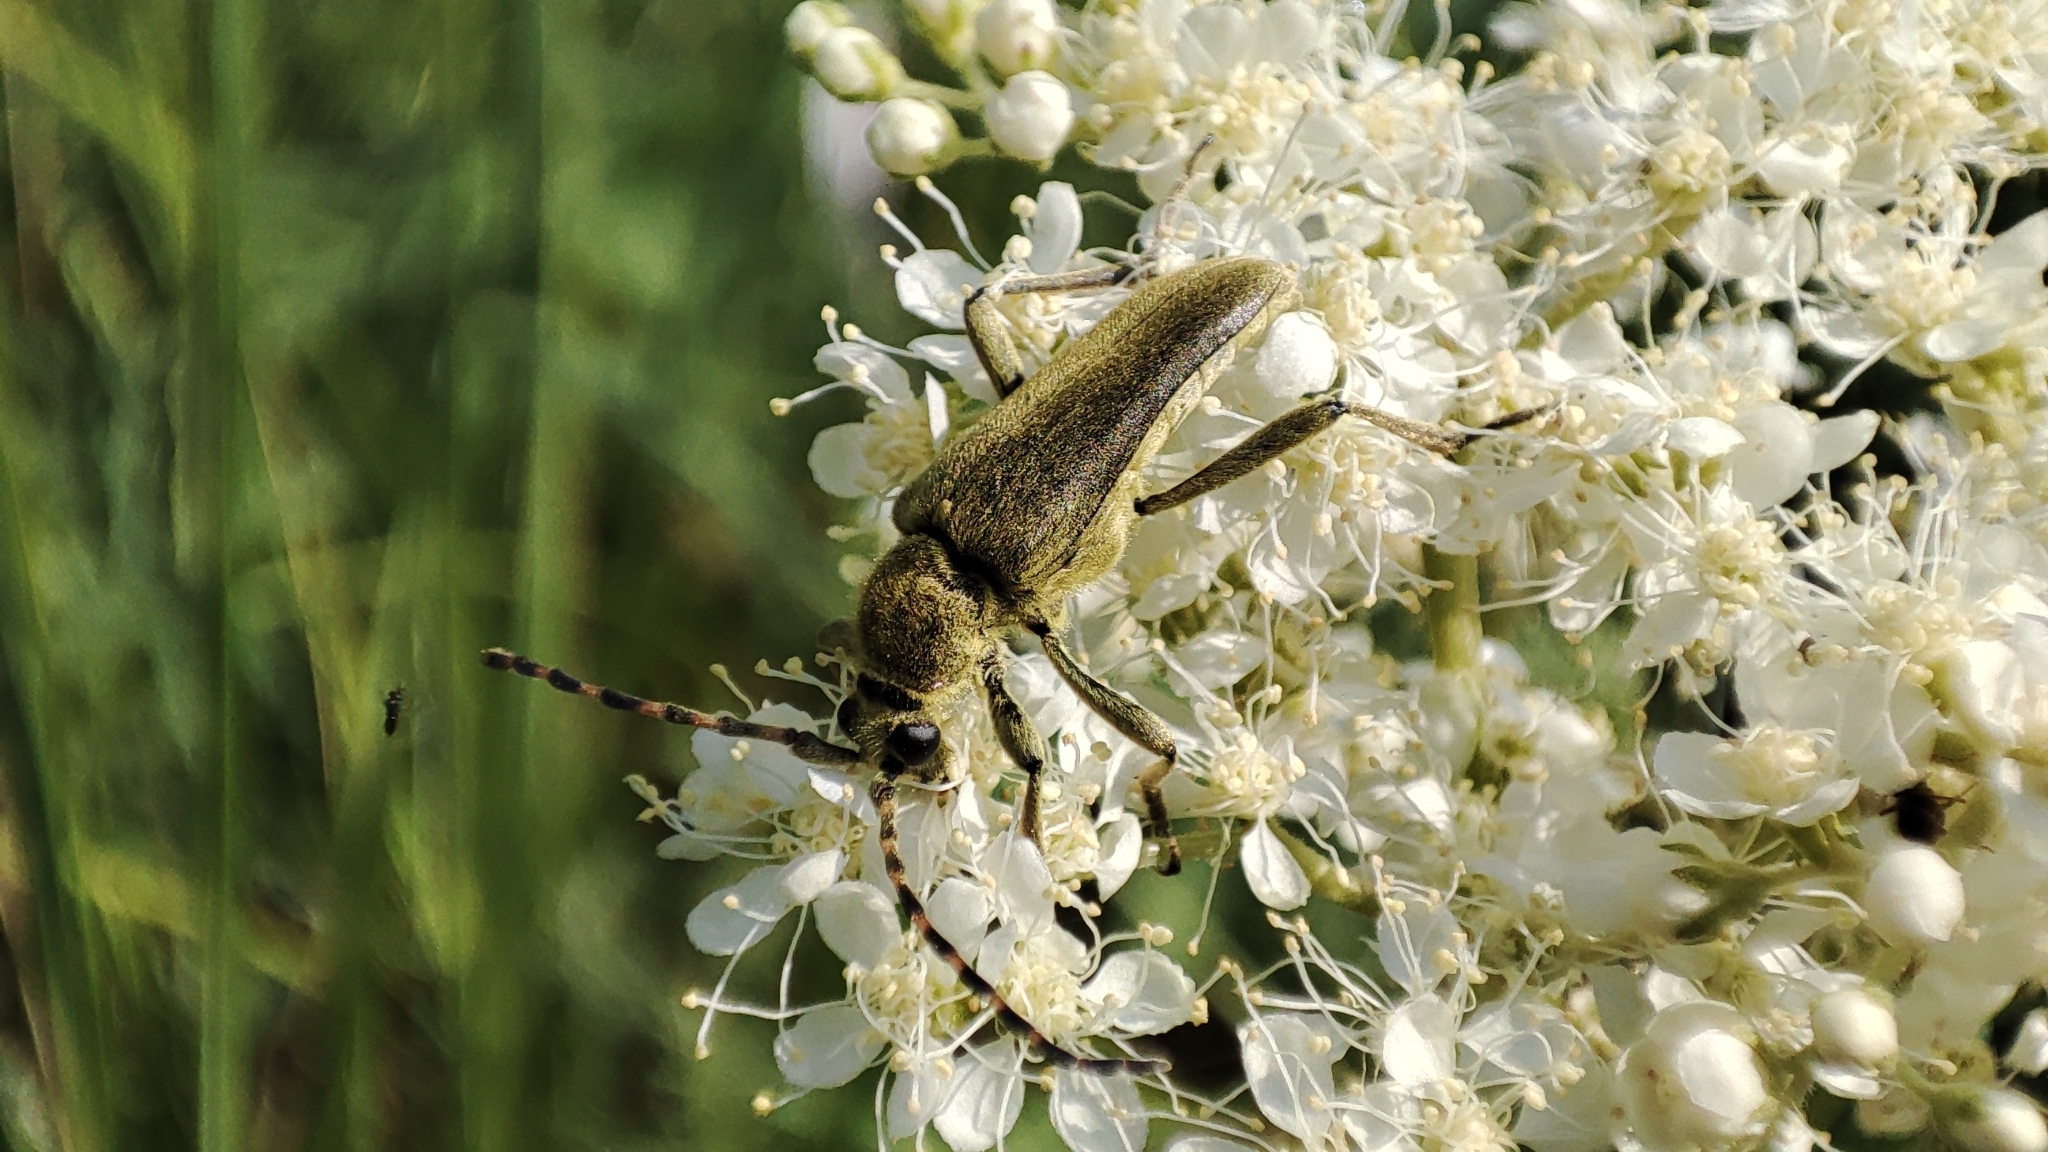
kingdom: Animalia
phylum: Arthropoda
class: Insecta
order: Coleoptera
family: Cerambycidae
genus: Lepturobosca
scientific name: Lepturobosca virens
